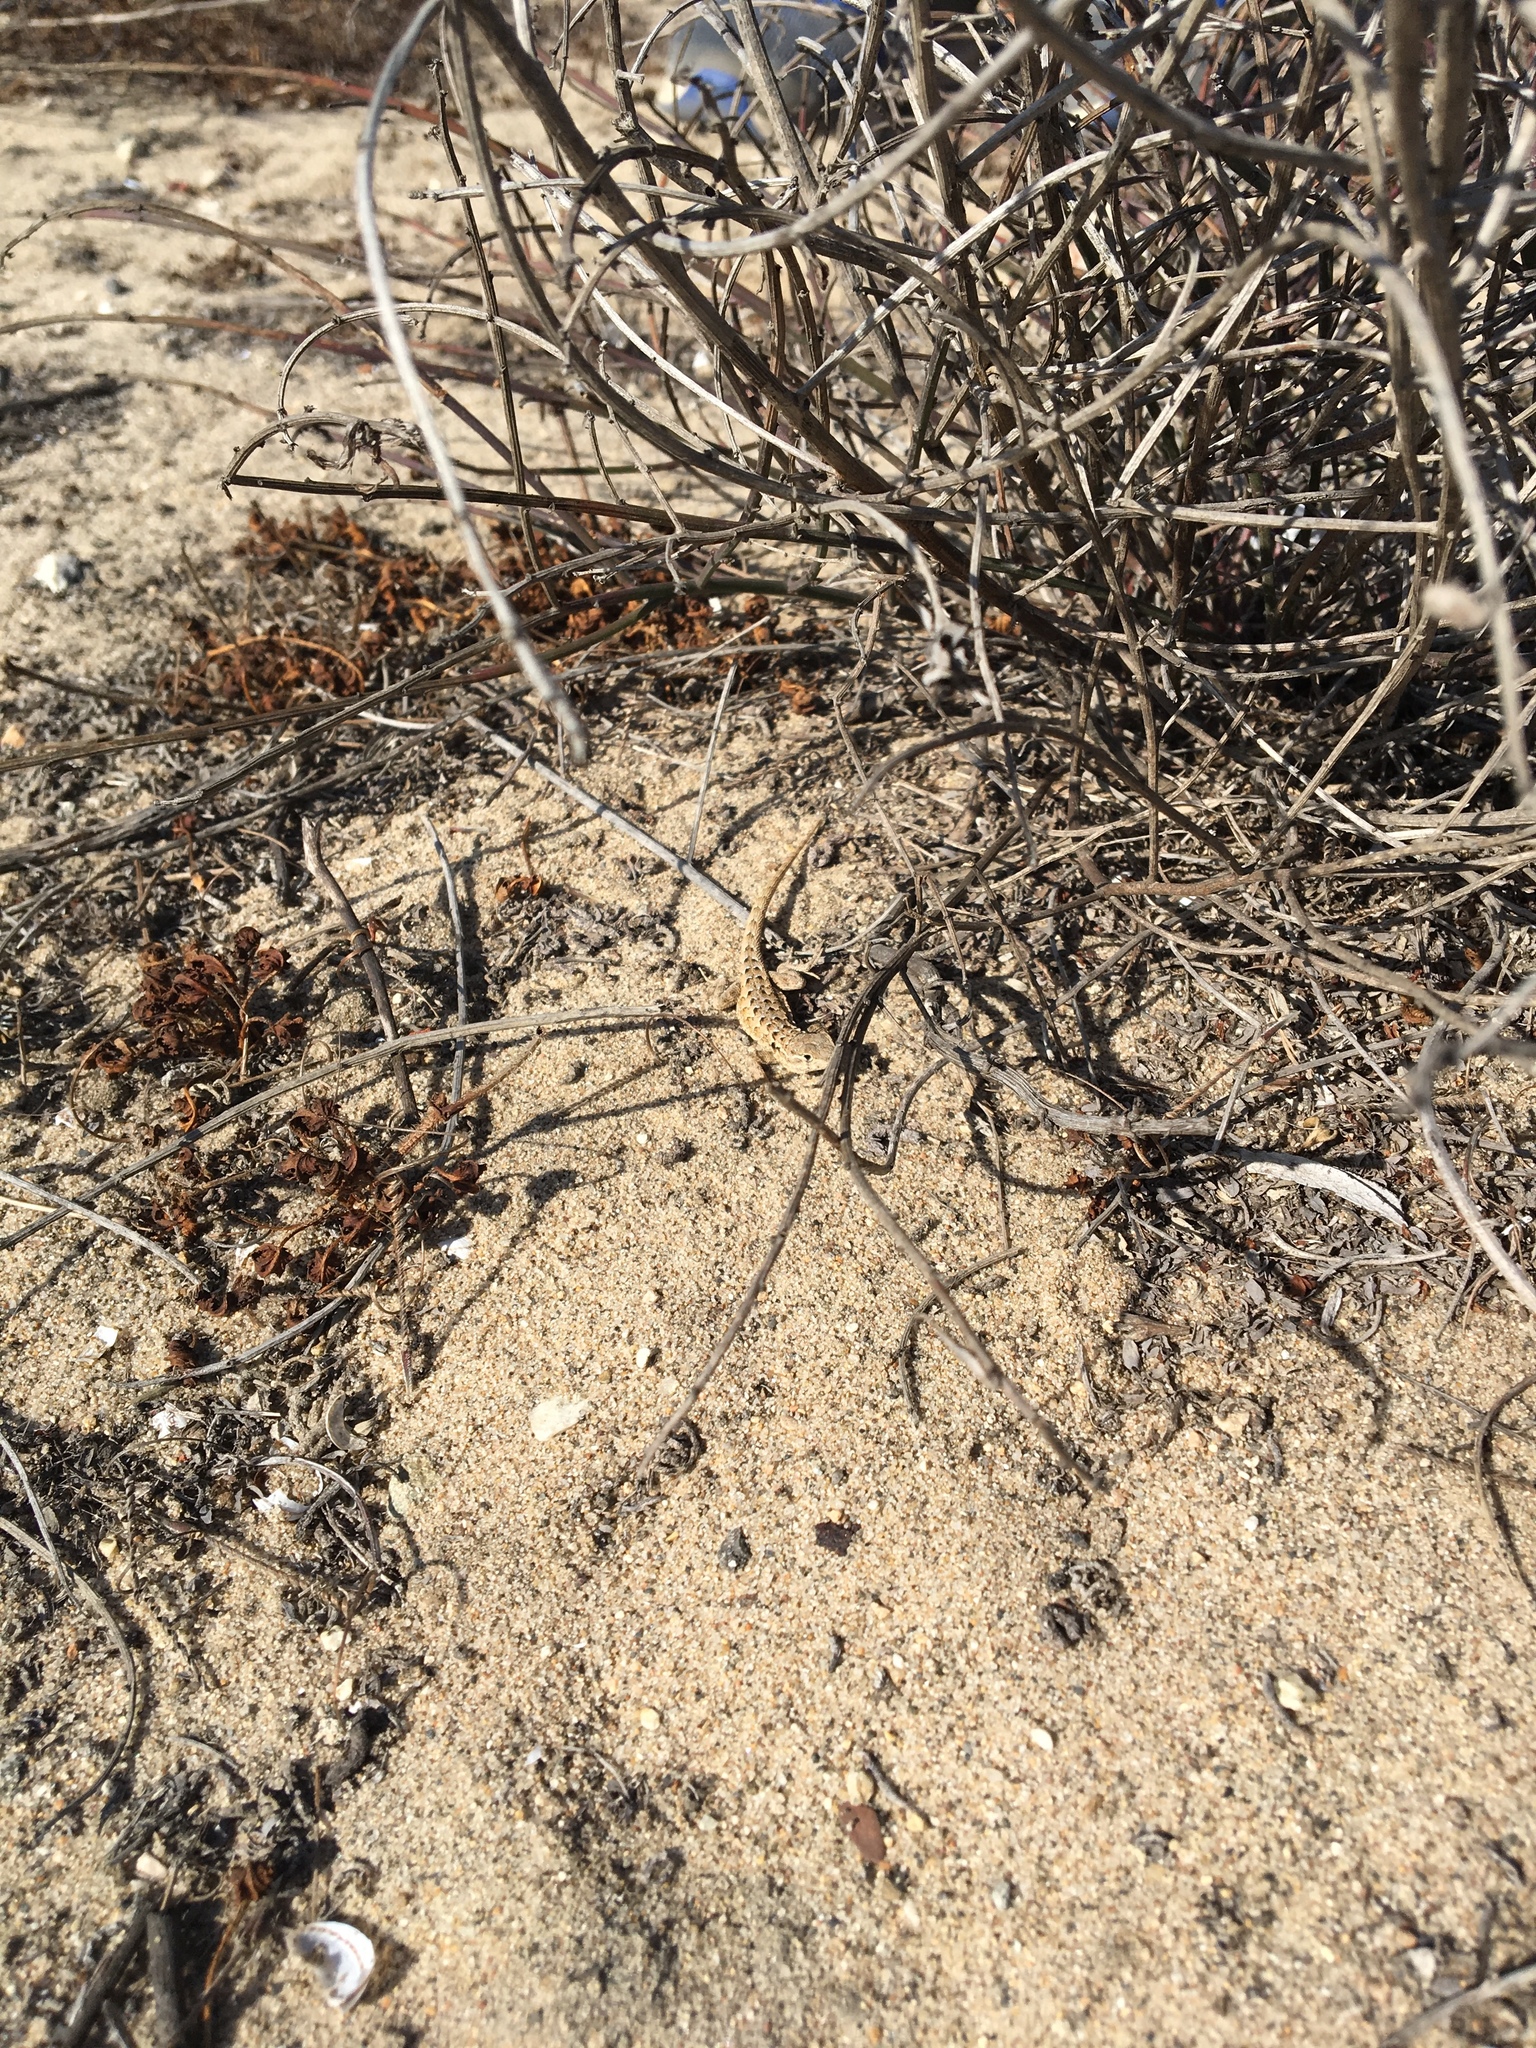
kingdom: Animalia
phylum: Chordata
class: Squamata
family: Phrynosomatidae
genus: Uta
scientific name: Uta stansburiana
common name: Side-blotched lizard
